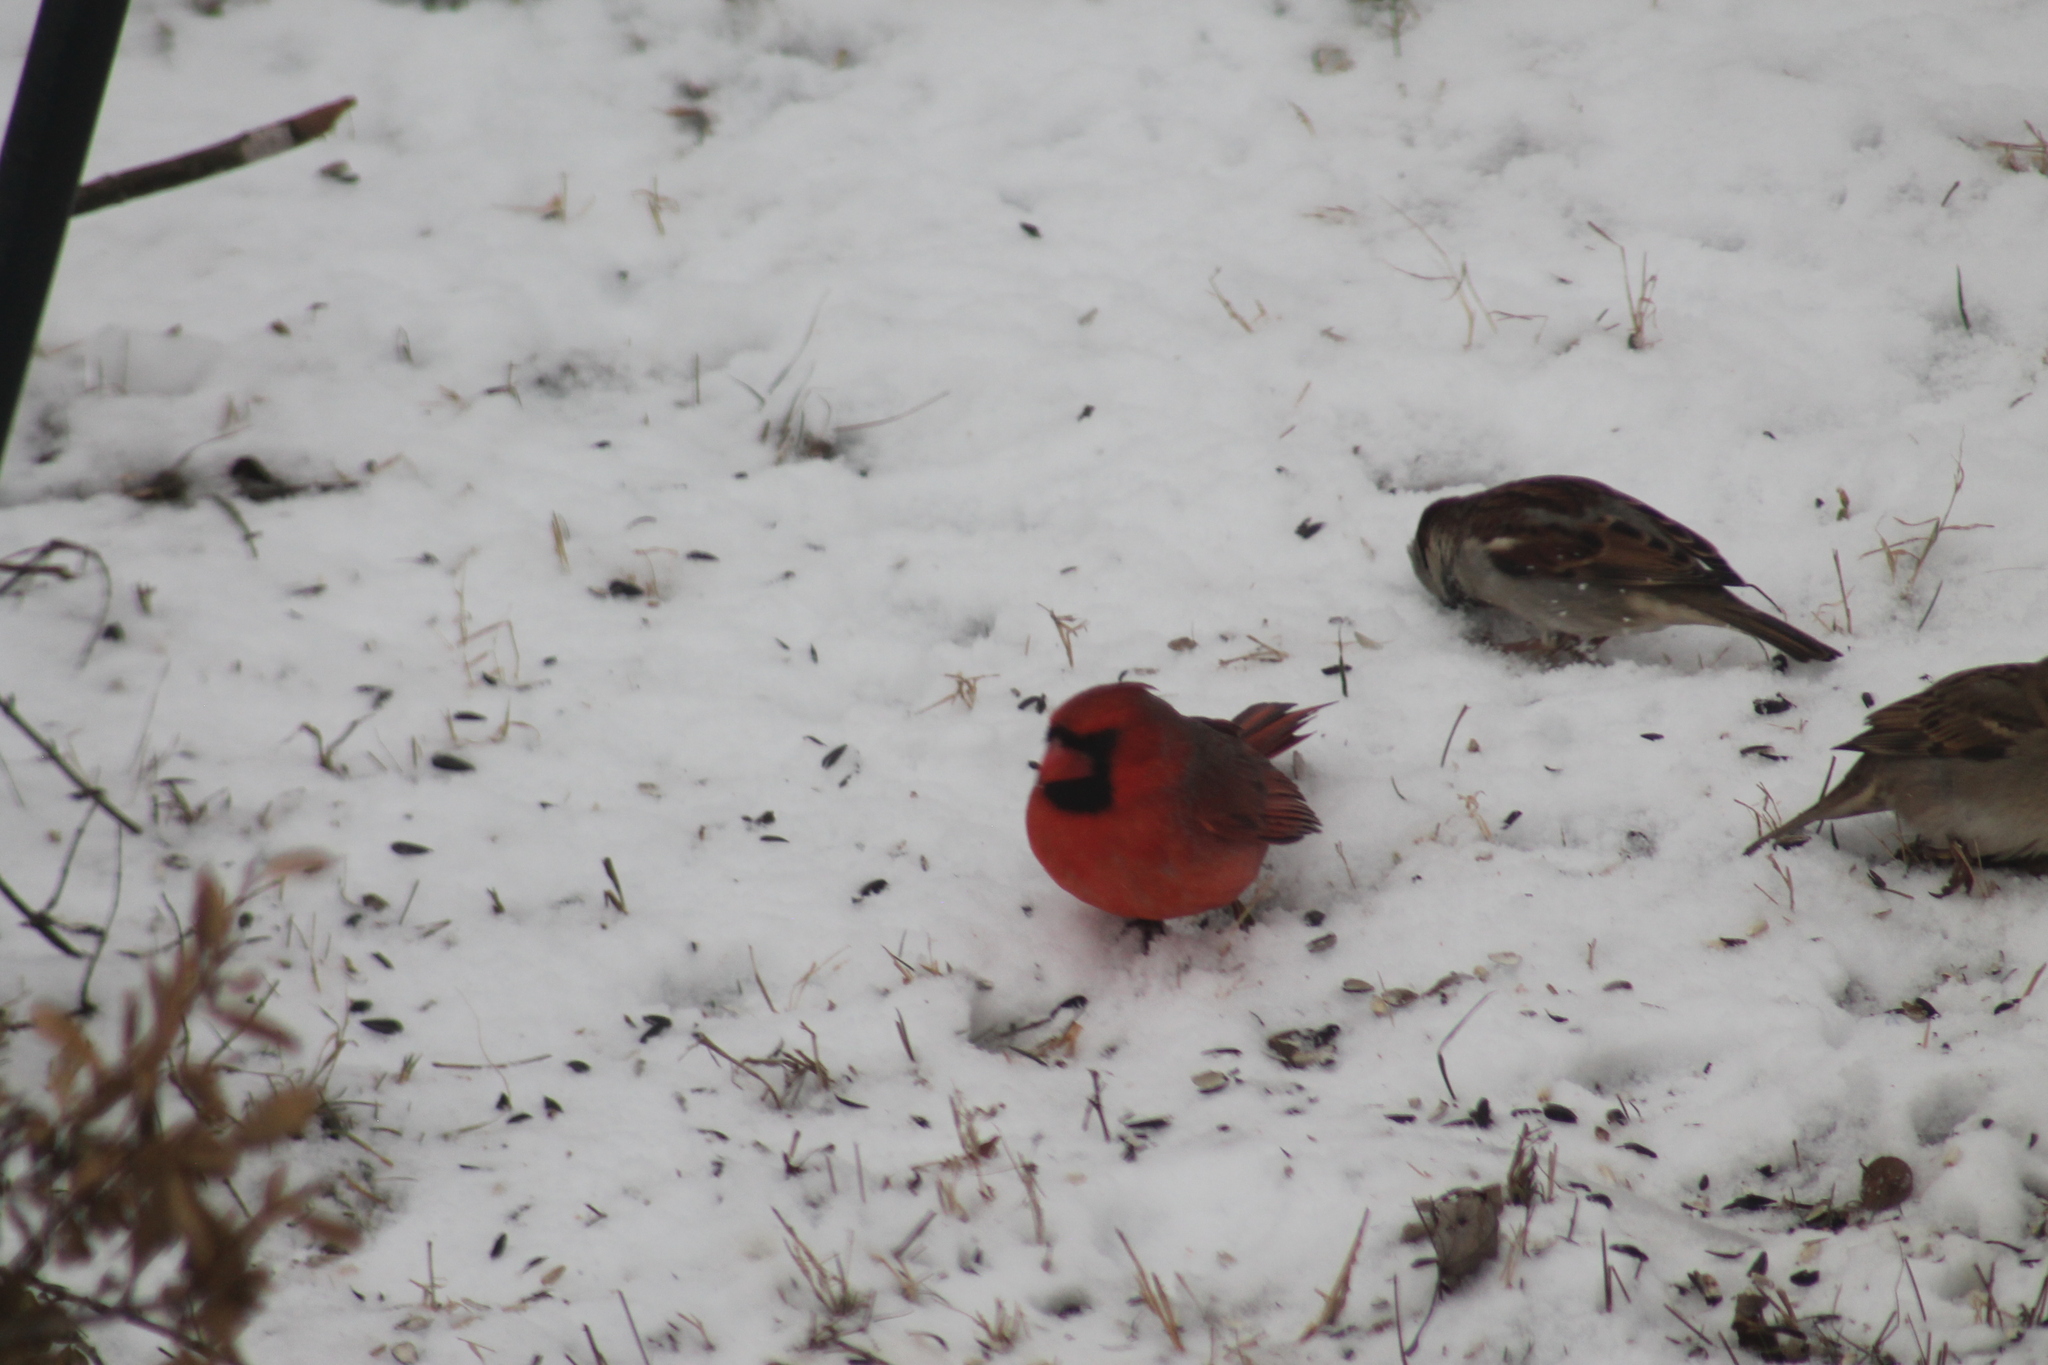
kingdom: Animalia
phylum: Chordata
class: Aves
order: Passeriformes
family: Cardinalidae
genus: Cardinalis
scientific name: Cardinalis cardinalis
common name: Northern cardinal
